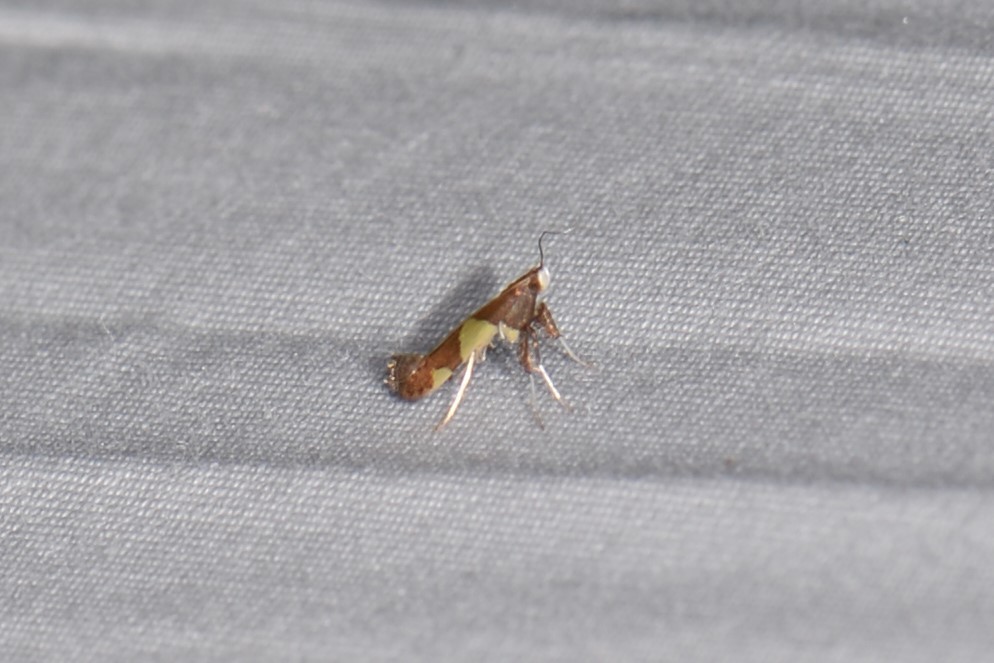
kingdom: Animalia
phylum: Arthropoda
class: Insecta
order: Lepidoptera
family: Gracillariidae
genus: Caloptilia
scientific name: Caloptilia bimaculatella
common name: Maple caloptilia moth
